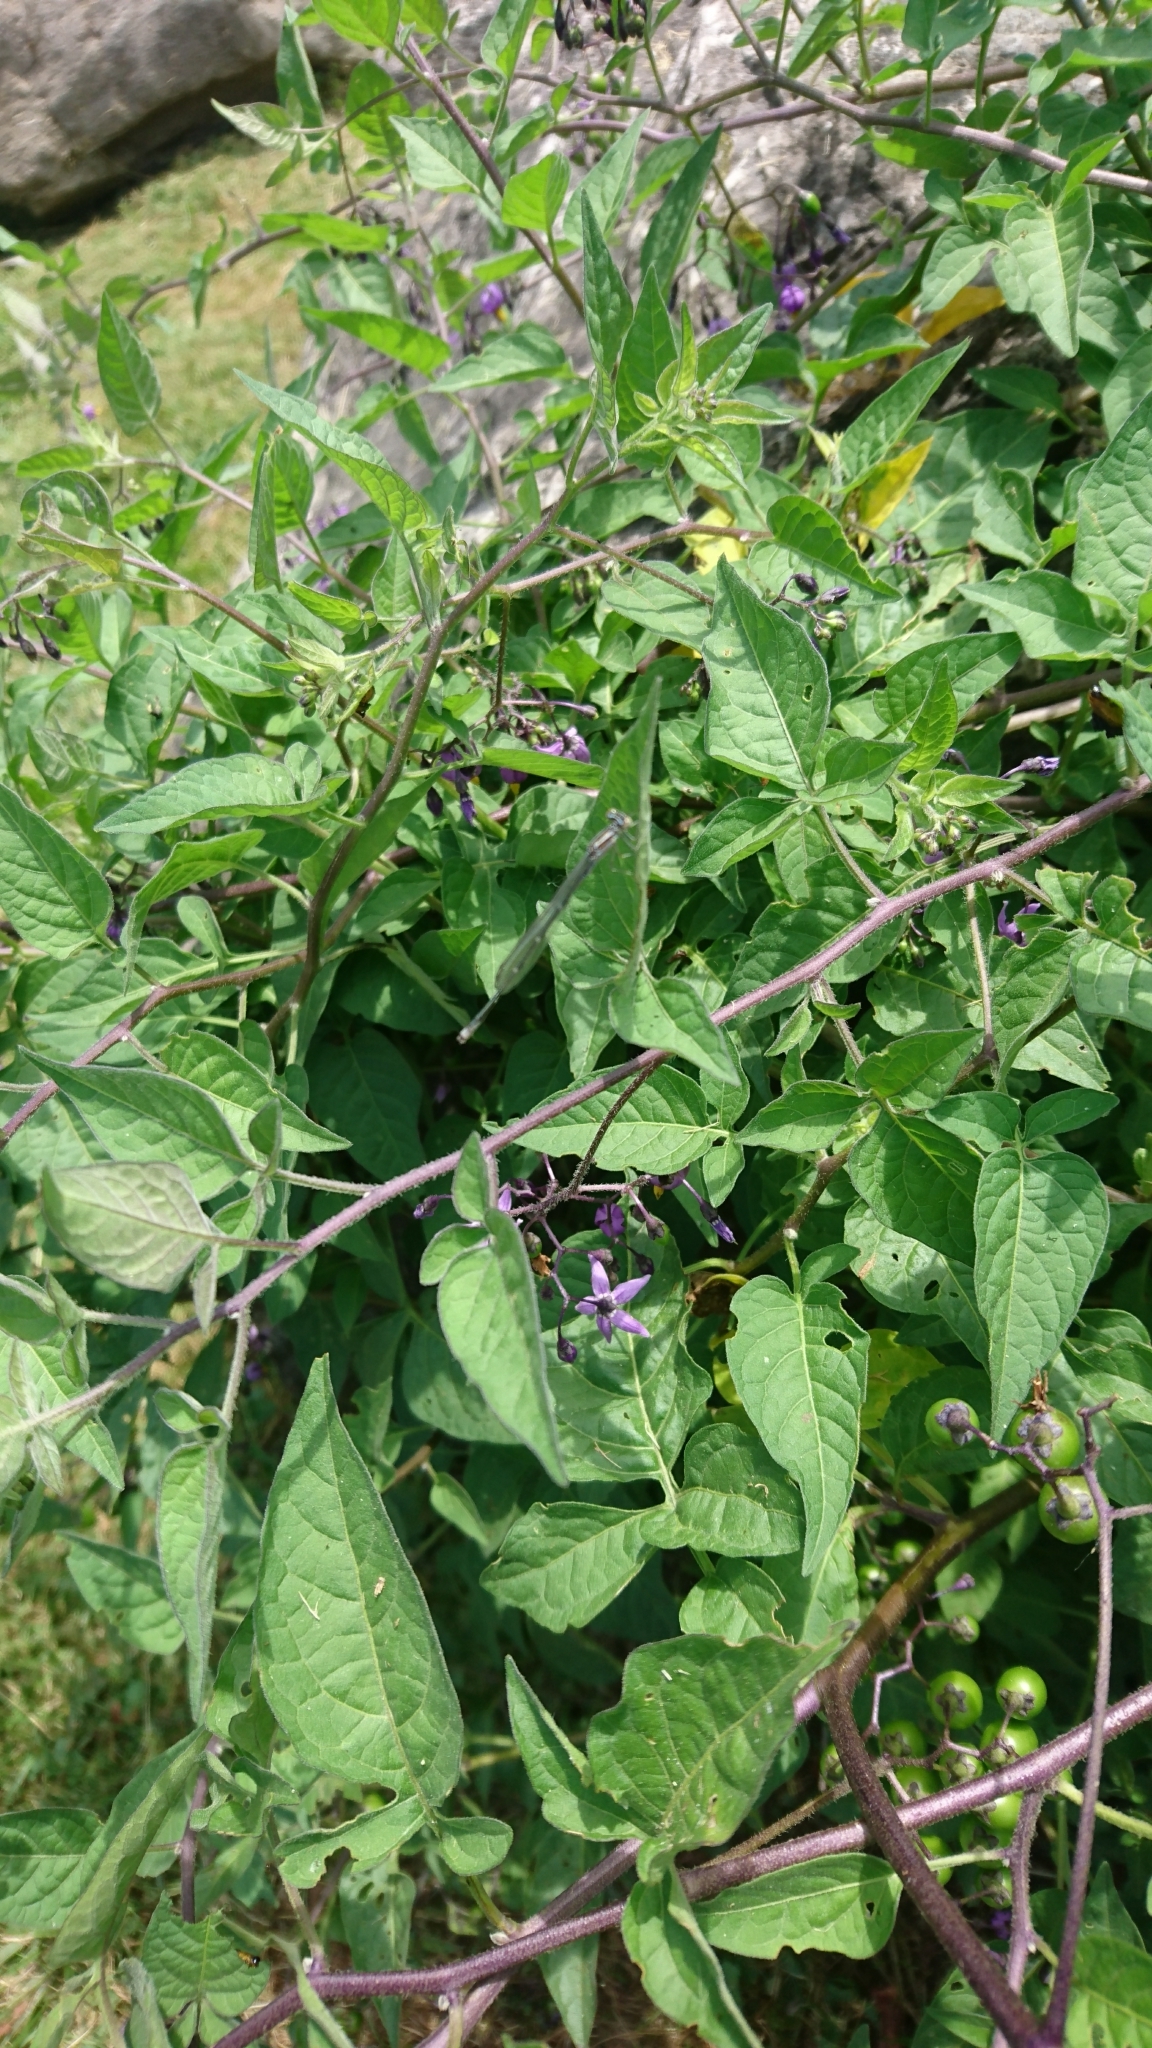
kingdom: Plantae
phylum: Tracheophyta
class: Magnoliopsida
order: Solanales
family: Solanaceae
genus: Solanum
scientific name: Solanum dulcamara
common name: Climbing nightshade
